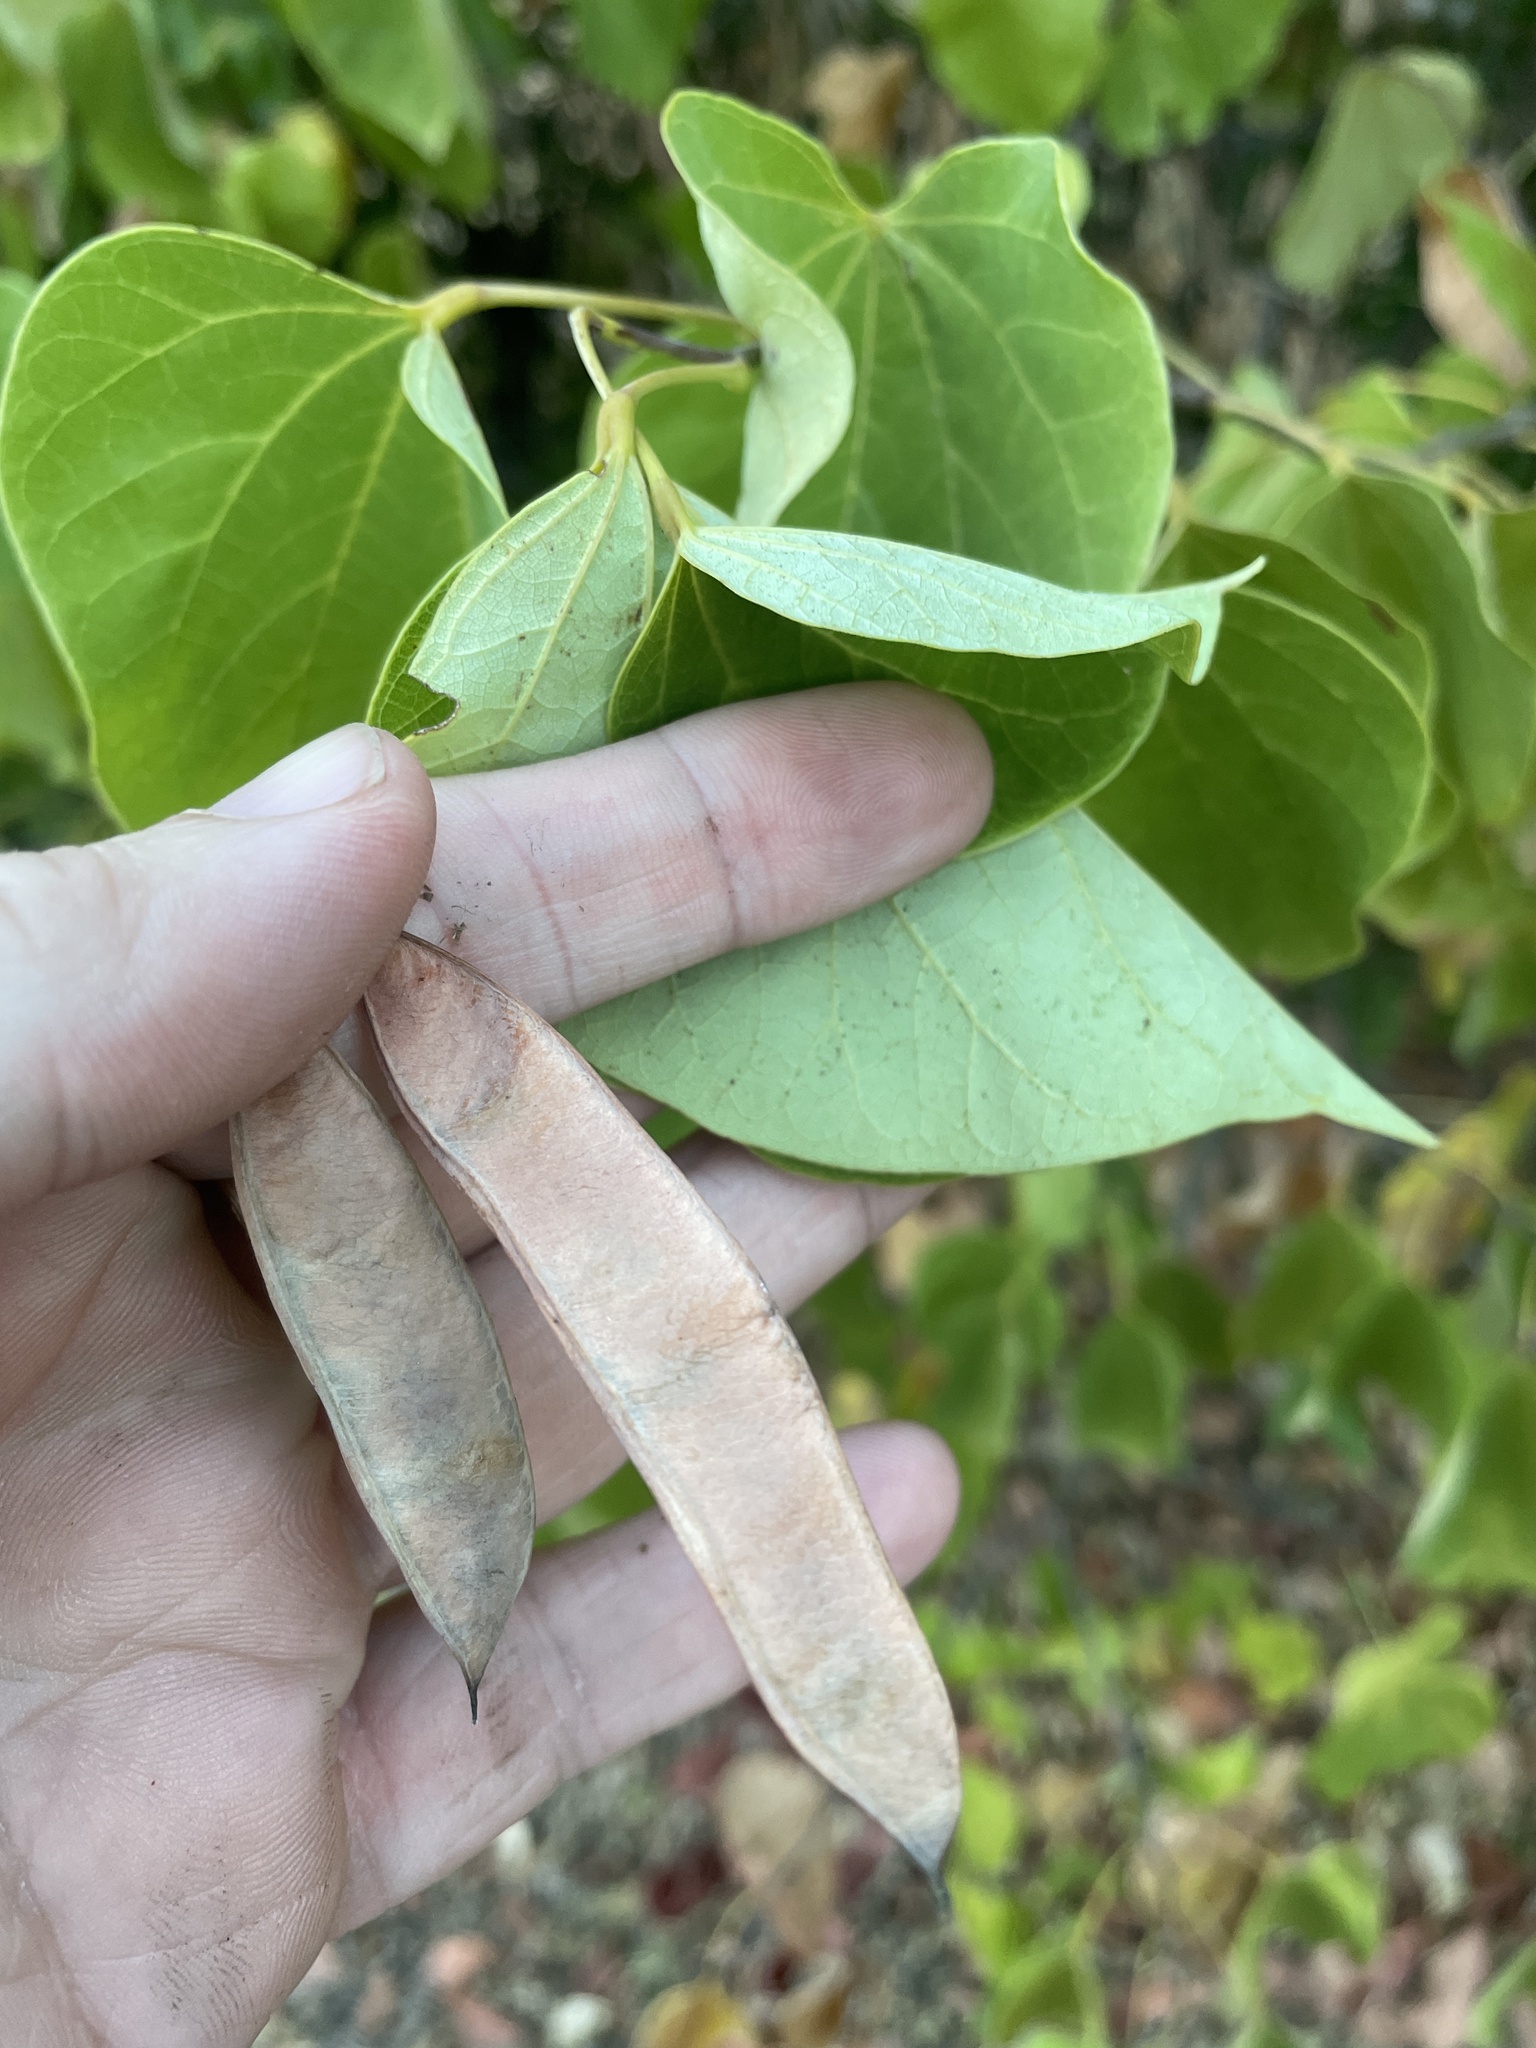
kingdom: Plantae
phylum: Tracheophyta
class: Magnoliopsida
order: Fabales
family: Fabaceae
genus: Cercis
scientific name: Cercis canadensis
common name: Eastern redbud
